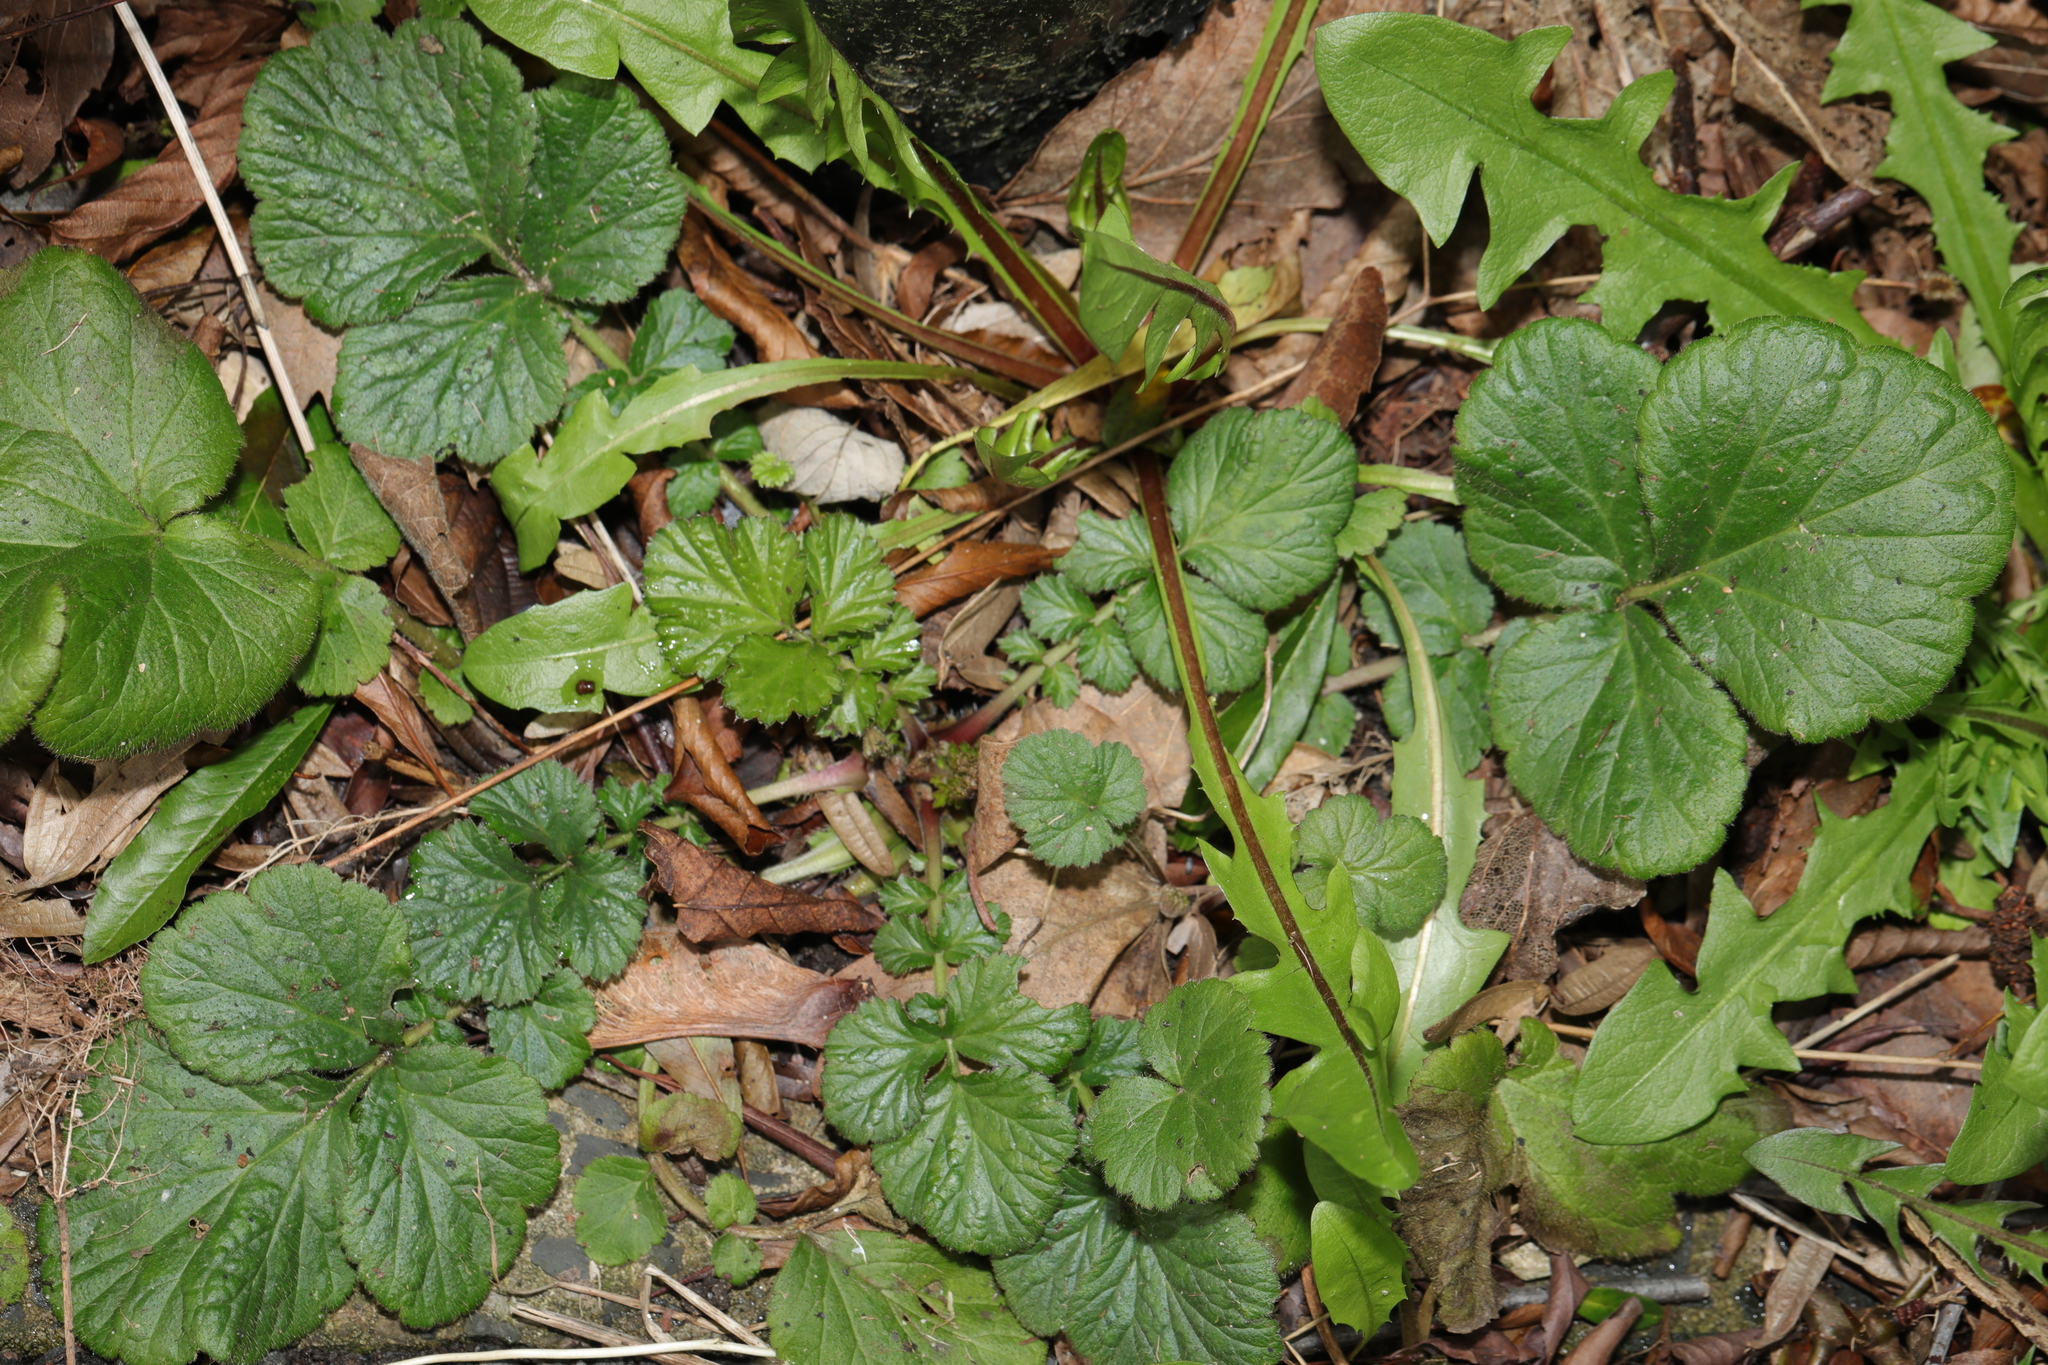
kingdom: Plantae
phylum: Tracheophyta
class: Magnoliopsida
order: Rosales
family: Rosaceae
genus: Geum
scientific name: Geum urbanum
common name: Wood avens
